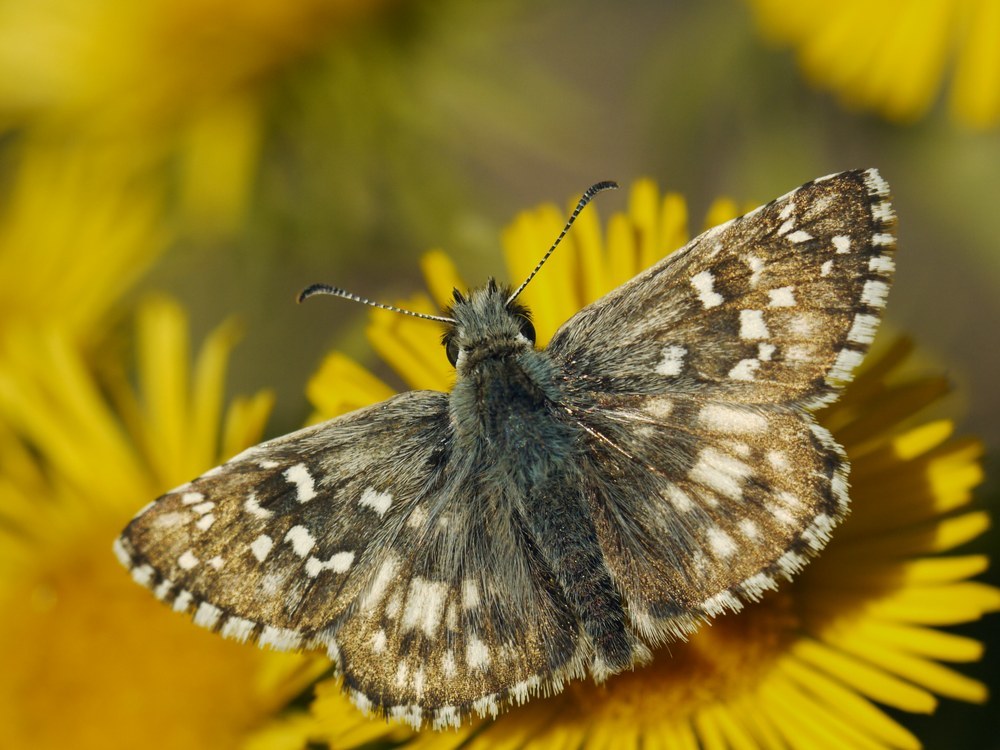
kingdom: Animalia
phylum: Arthropoda
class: Insecta
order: Lepidoptera
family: Hesperiidae
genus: Pyrgus
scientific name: Pyrgus armoricanus
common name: Oberthür's grizzled skipper
